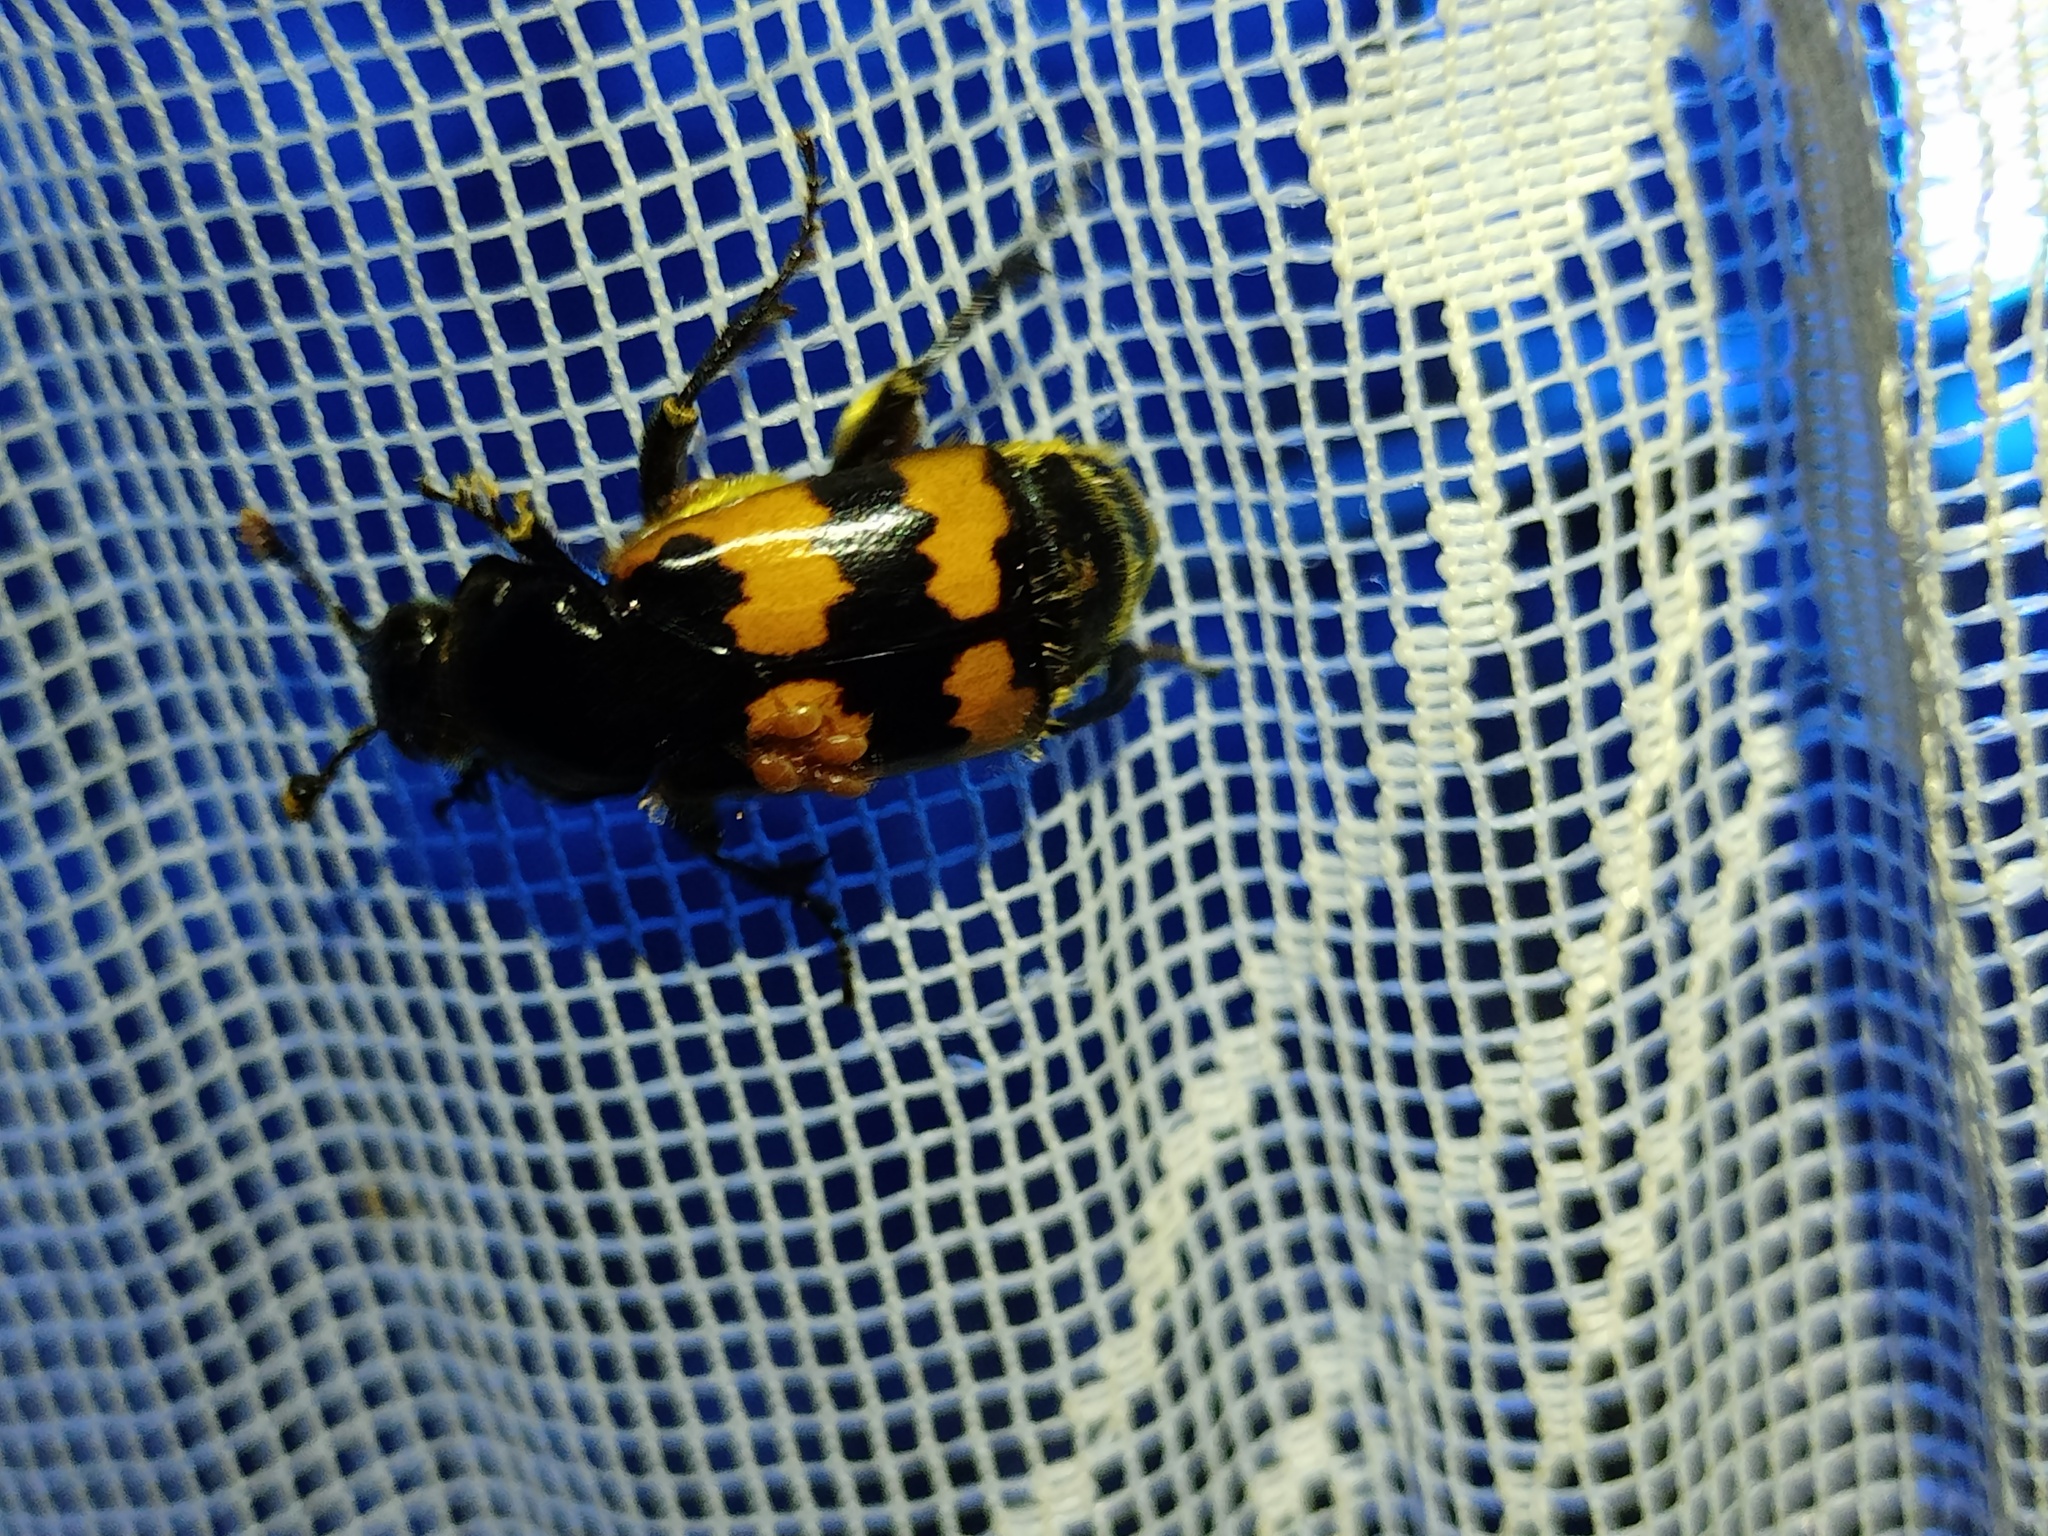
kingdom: Animalia
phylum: Arthropoda
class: Insecta
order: Coleoptera
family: Staphylinidae
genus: Nicrophorus
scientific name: Nicrophorus vespillo
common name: Common burying beetle
